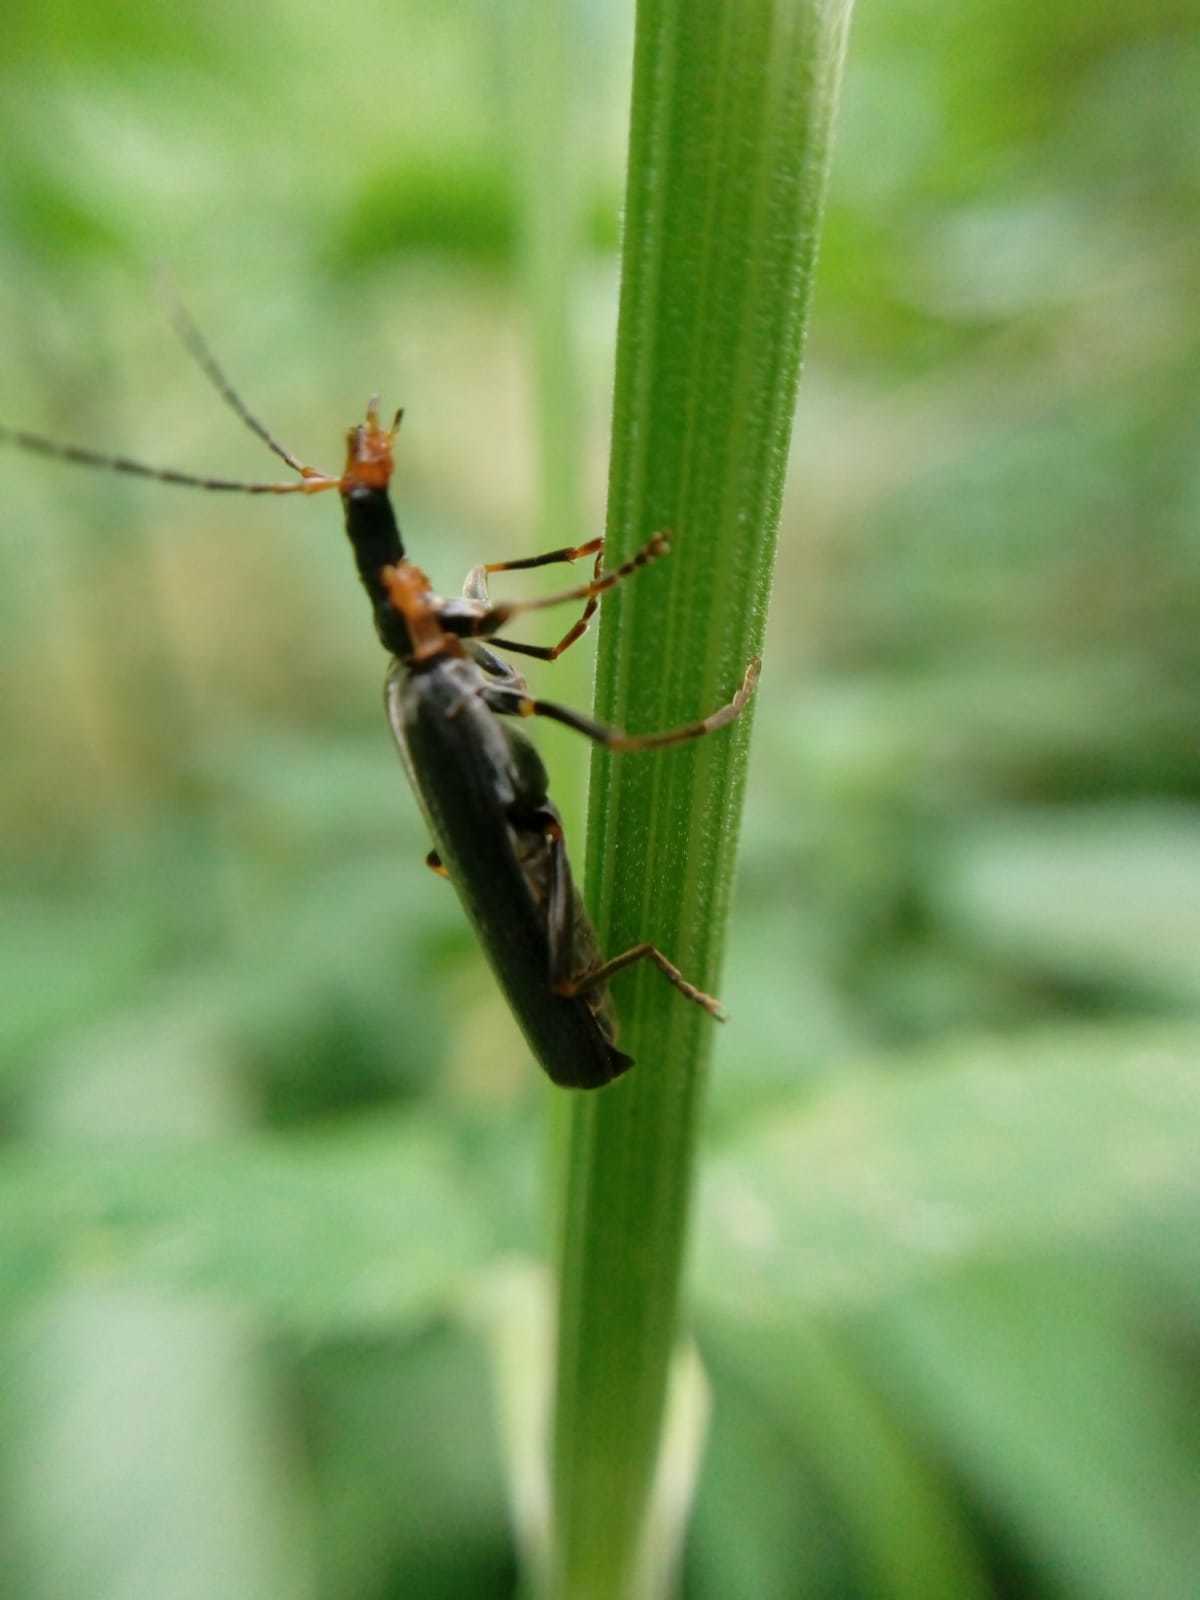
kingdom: Animalia
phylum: Arthropoda
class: Insecta
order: Coleoptera
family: Cantharidae
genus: Podabrus
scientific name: Podabrus alpinus
